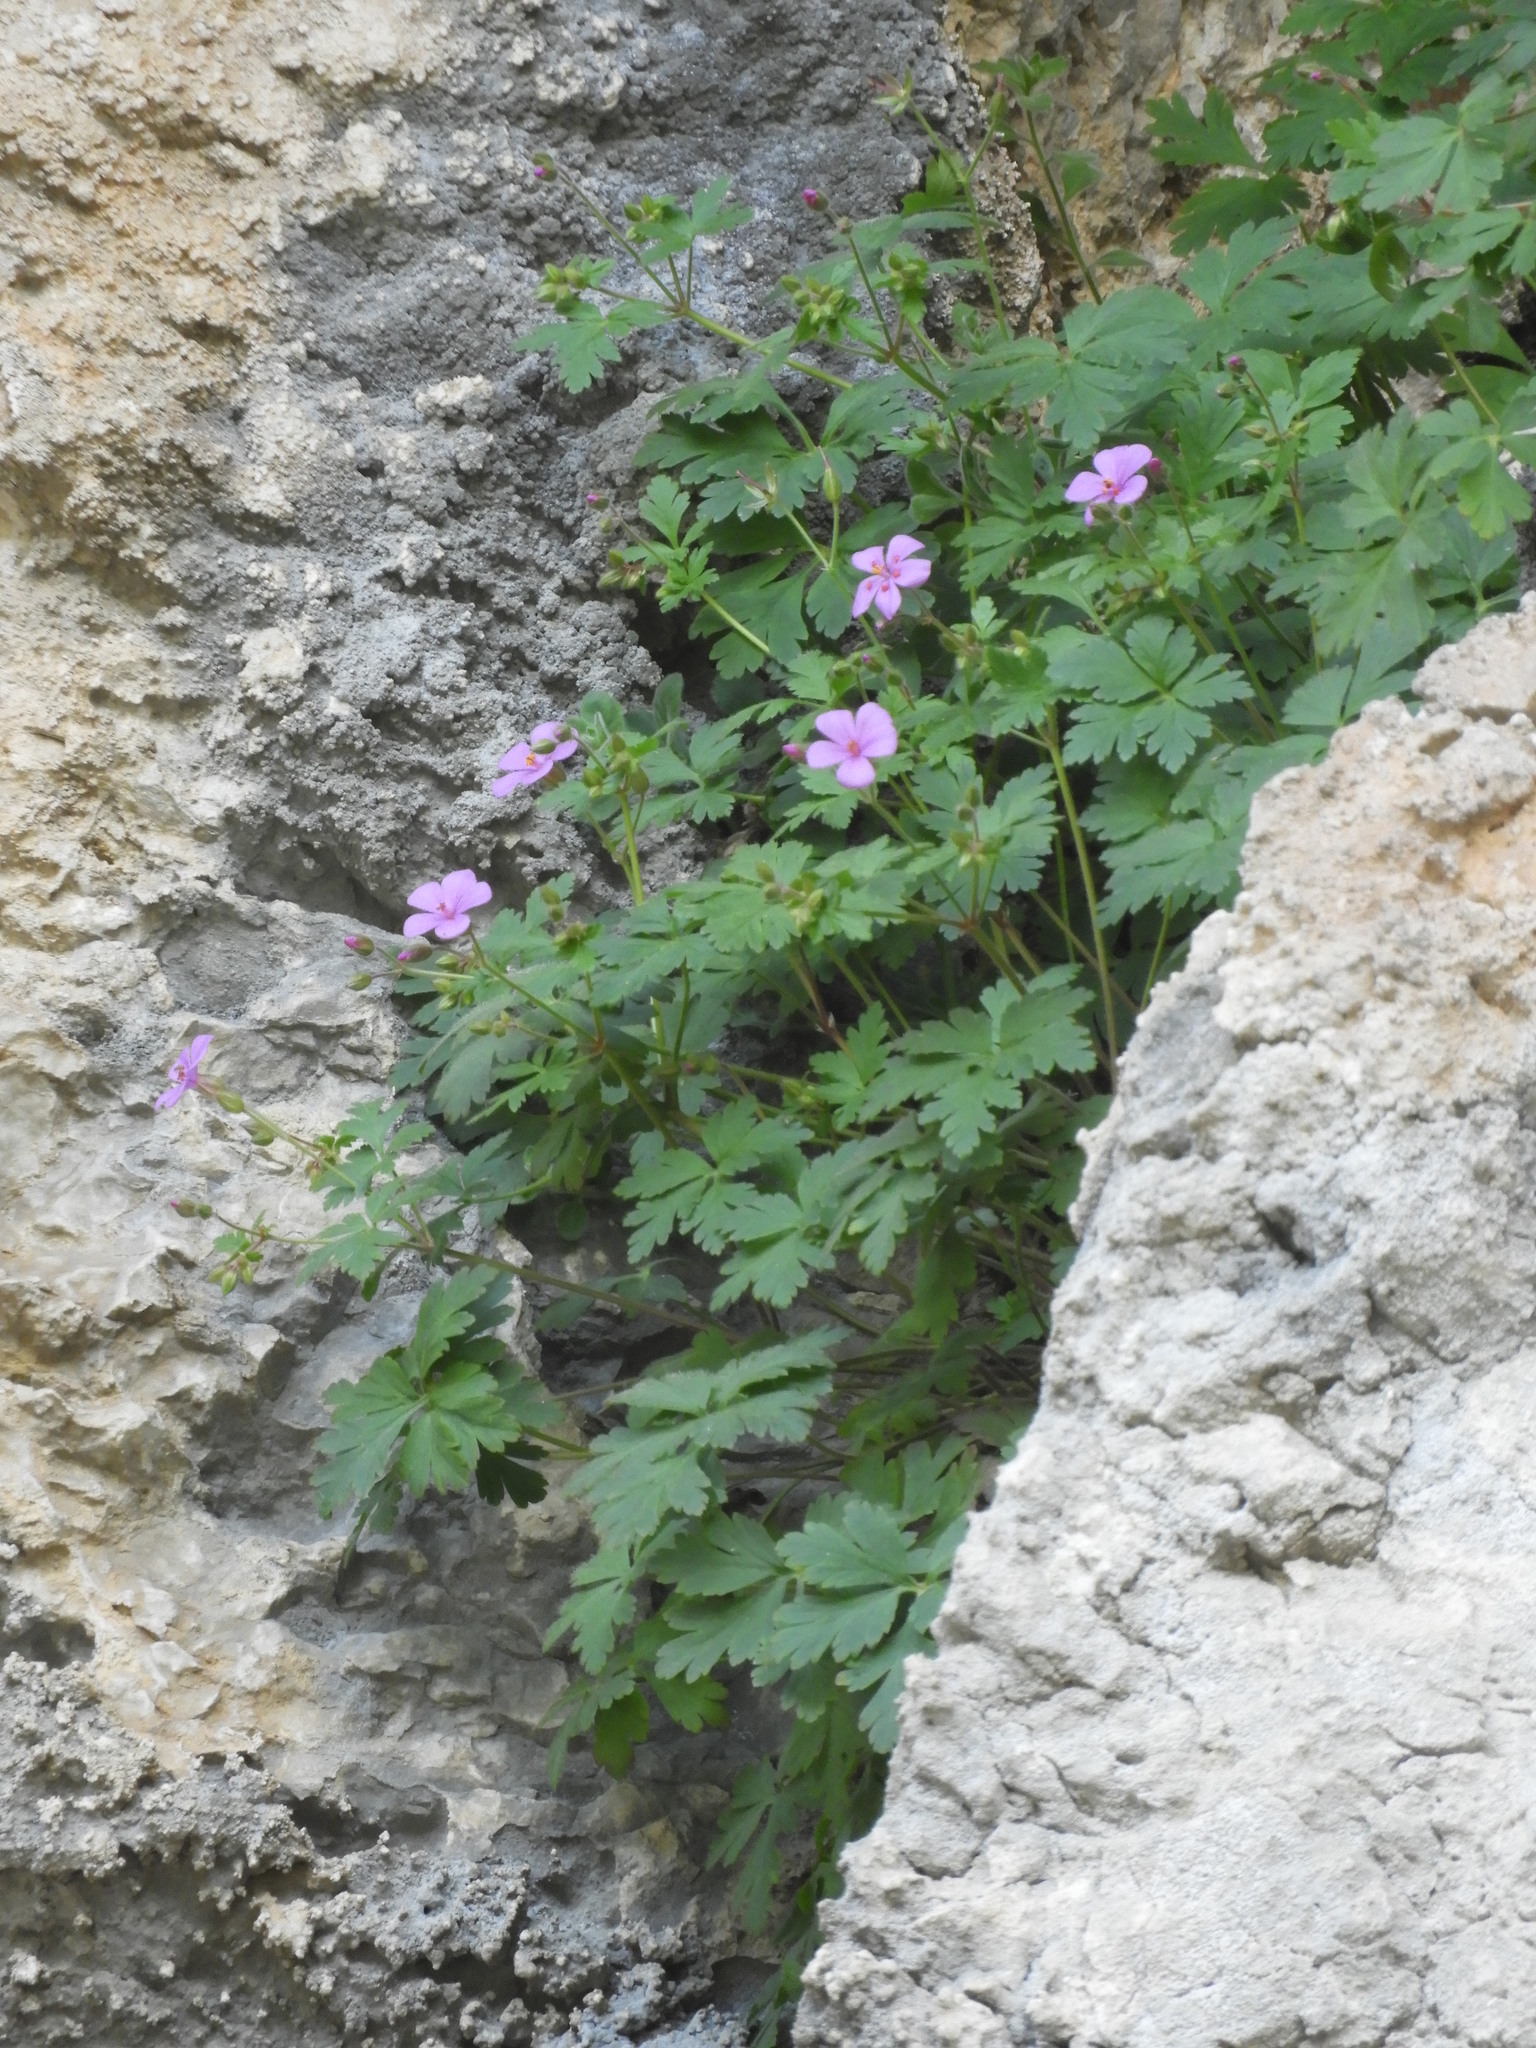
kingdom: Plantae
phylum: Tracheophyta
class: Magnoliopsida
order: Geraniales
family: Geraniaceae
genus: Geranium
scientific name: Geranium cataractarum
